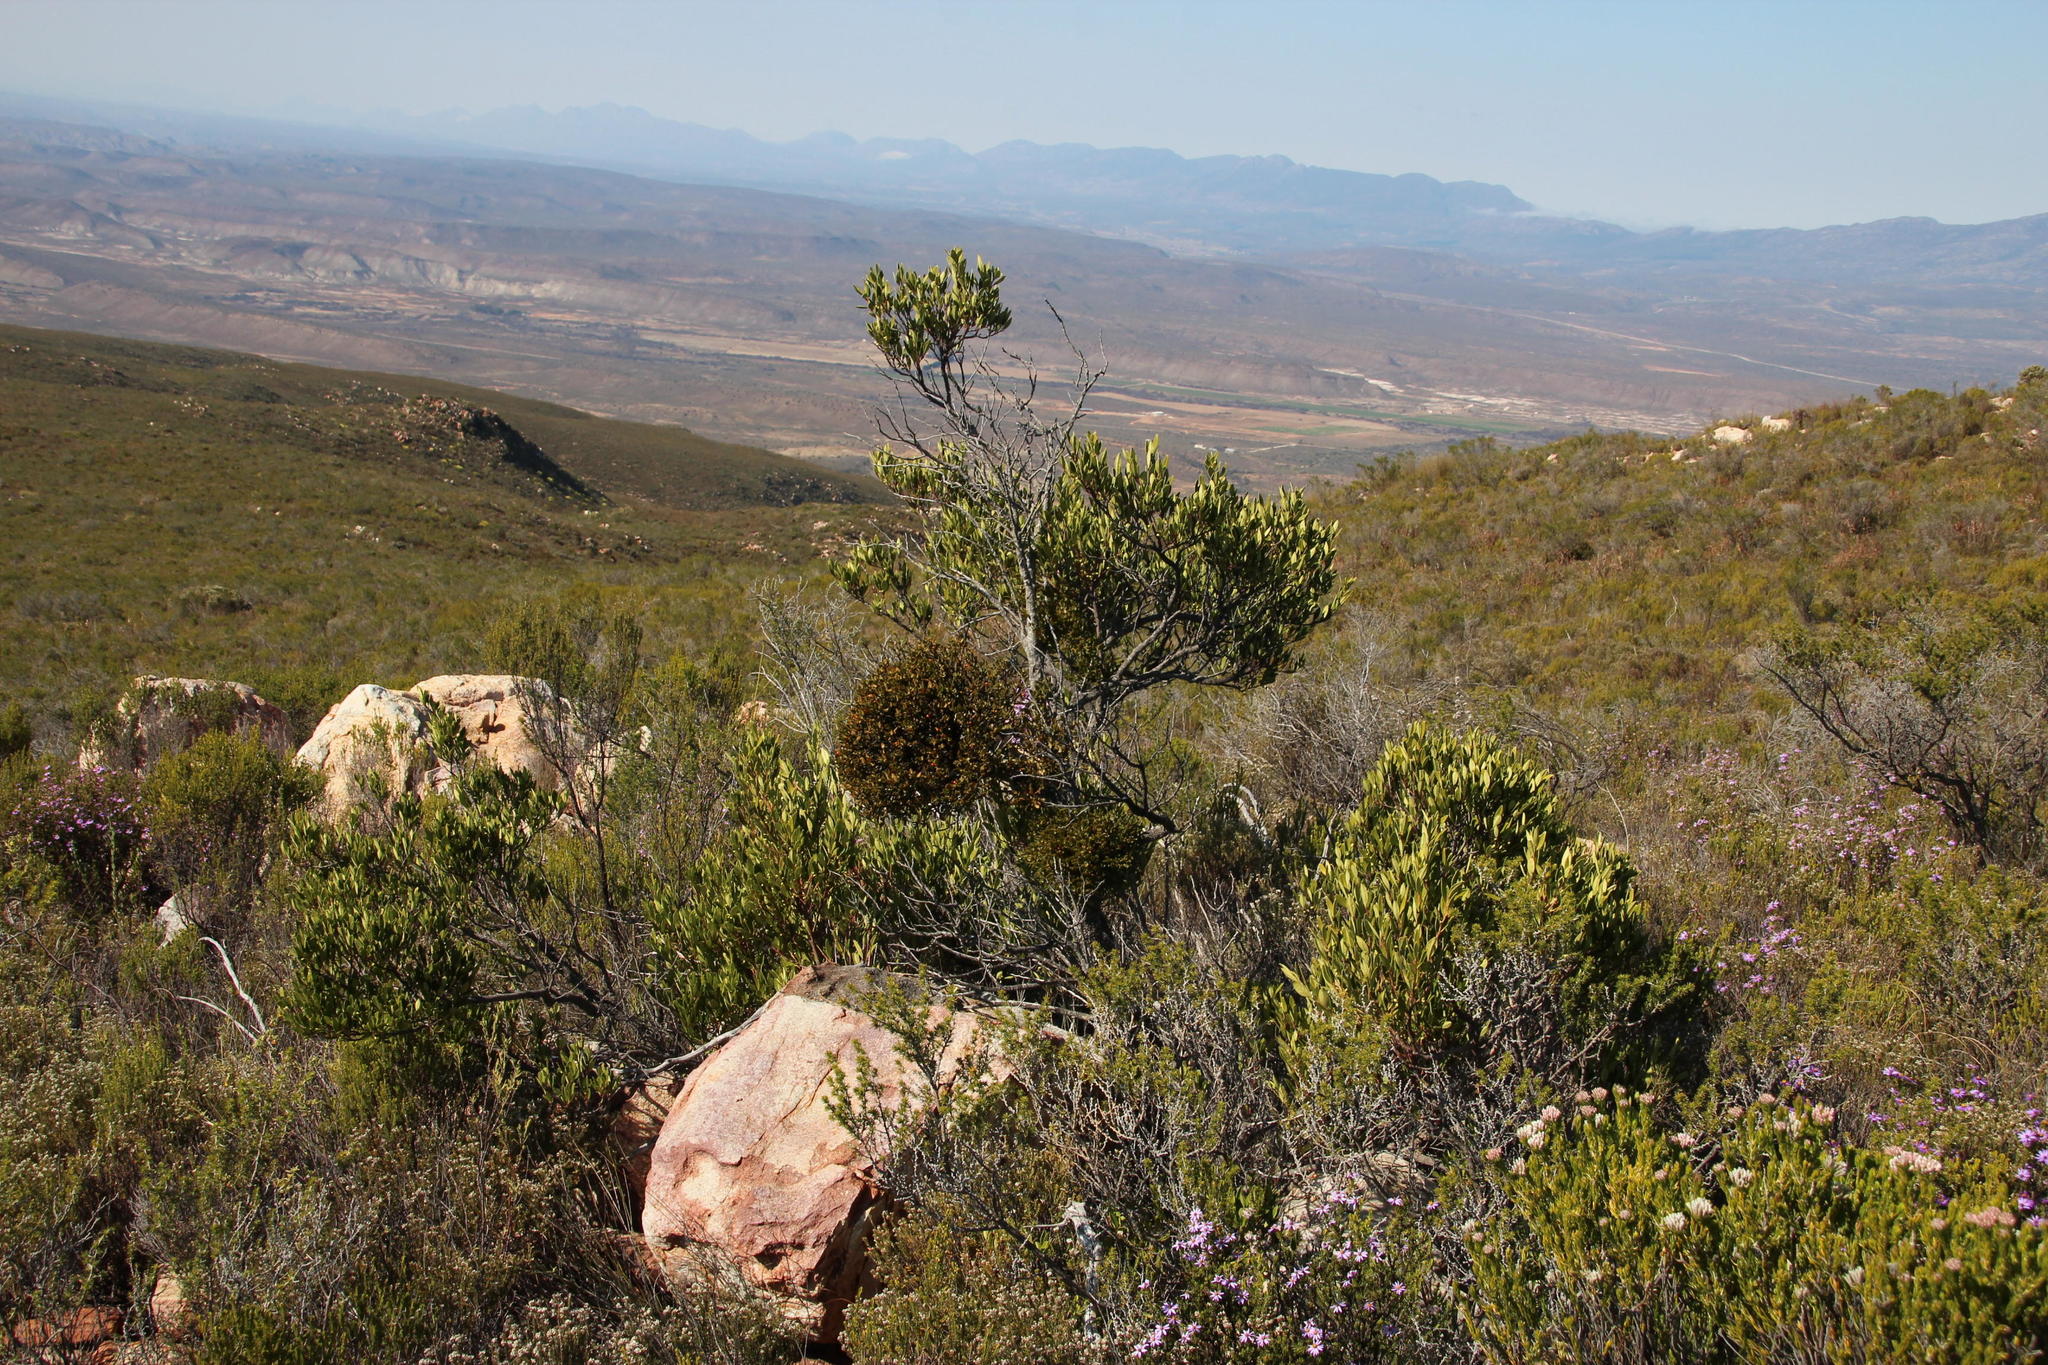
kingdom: Plantae
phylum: Tracheophyta
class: Magnoliopsida
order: Celastrales
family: Celastraceae
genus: Gymnosporia
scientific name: Gymnosporia laurina
